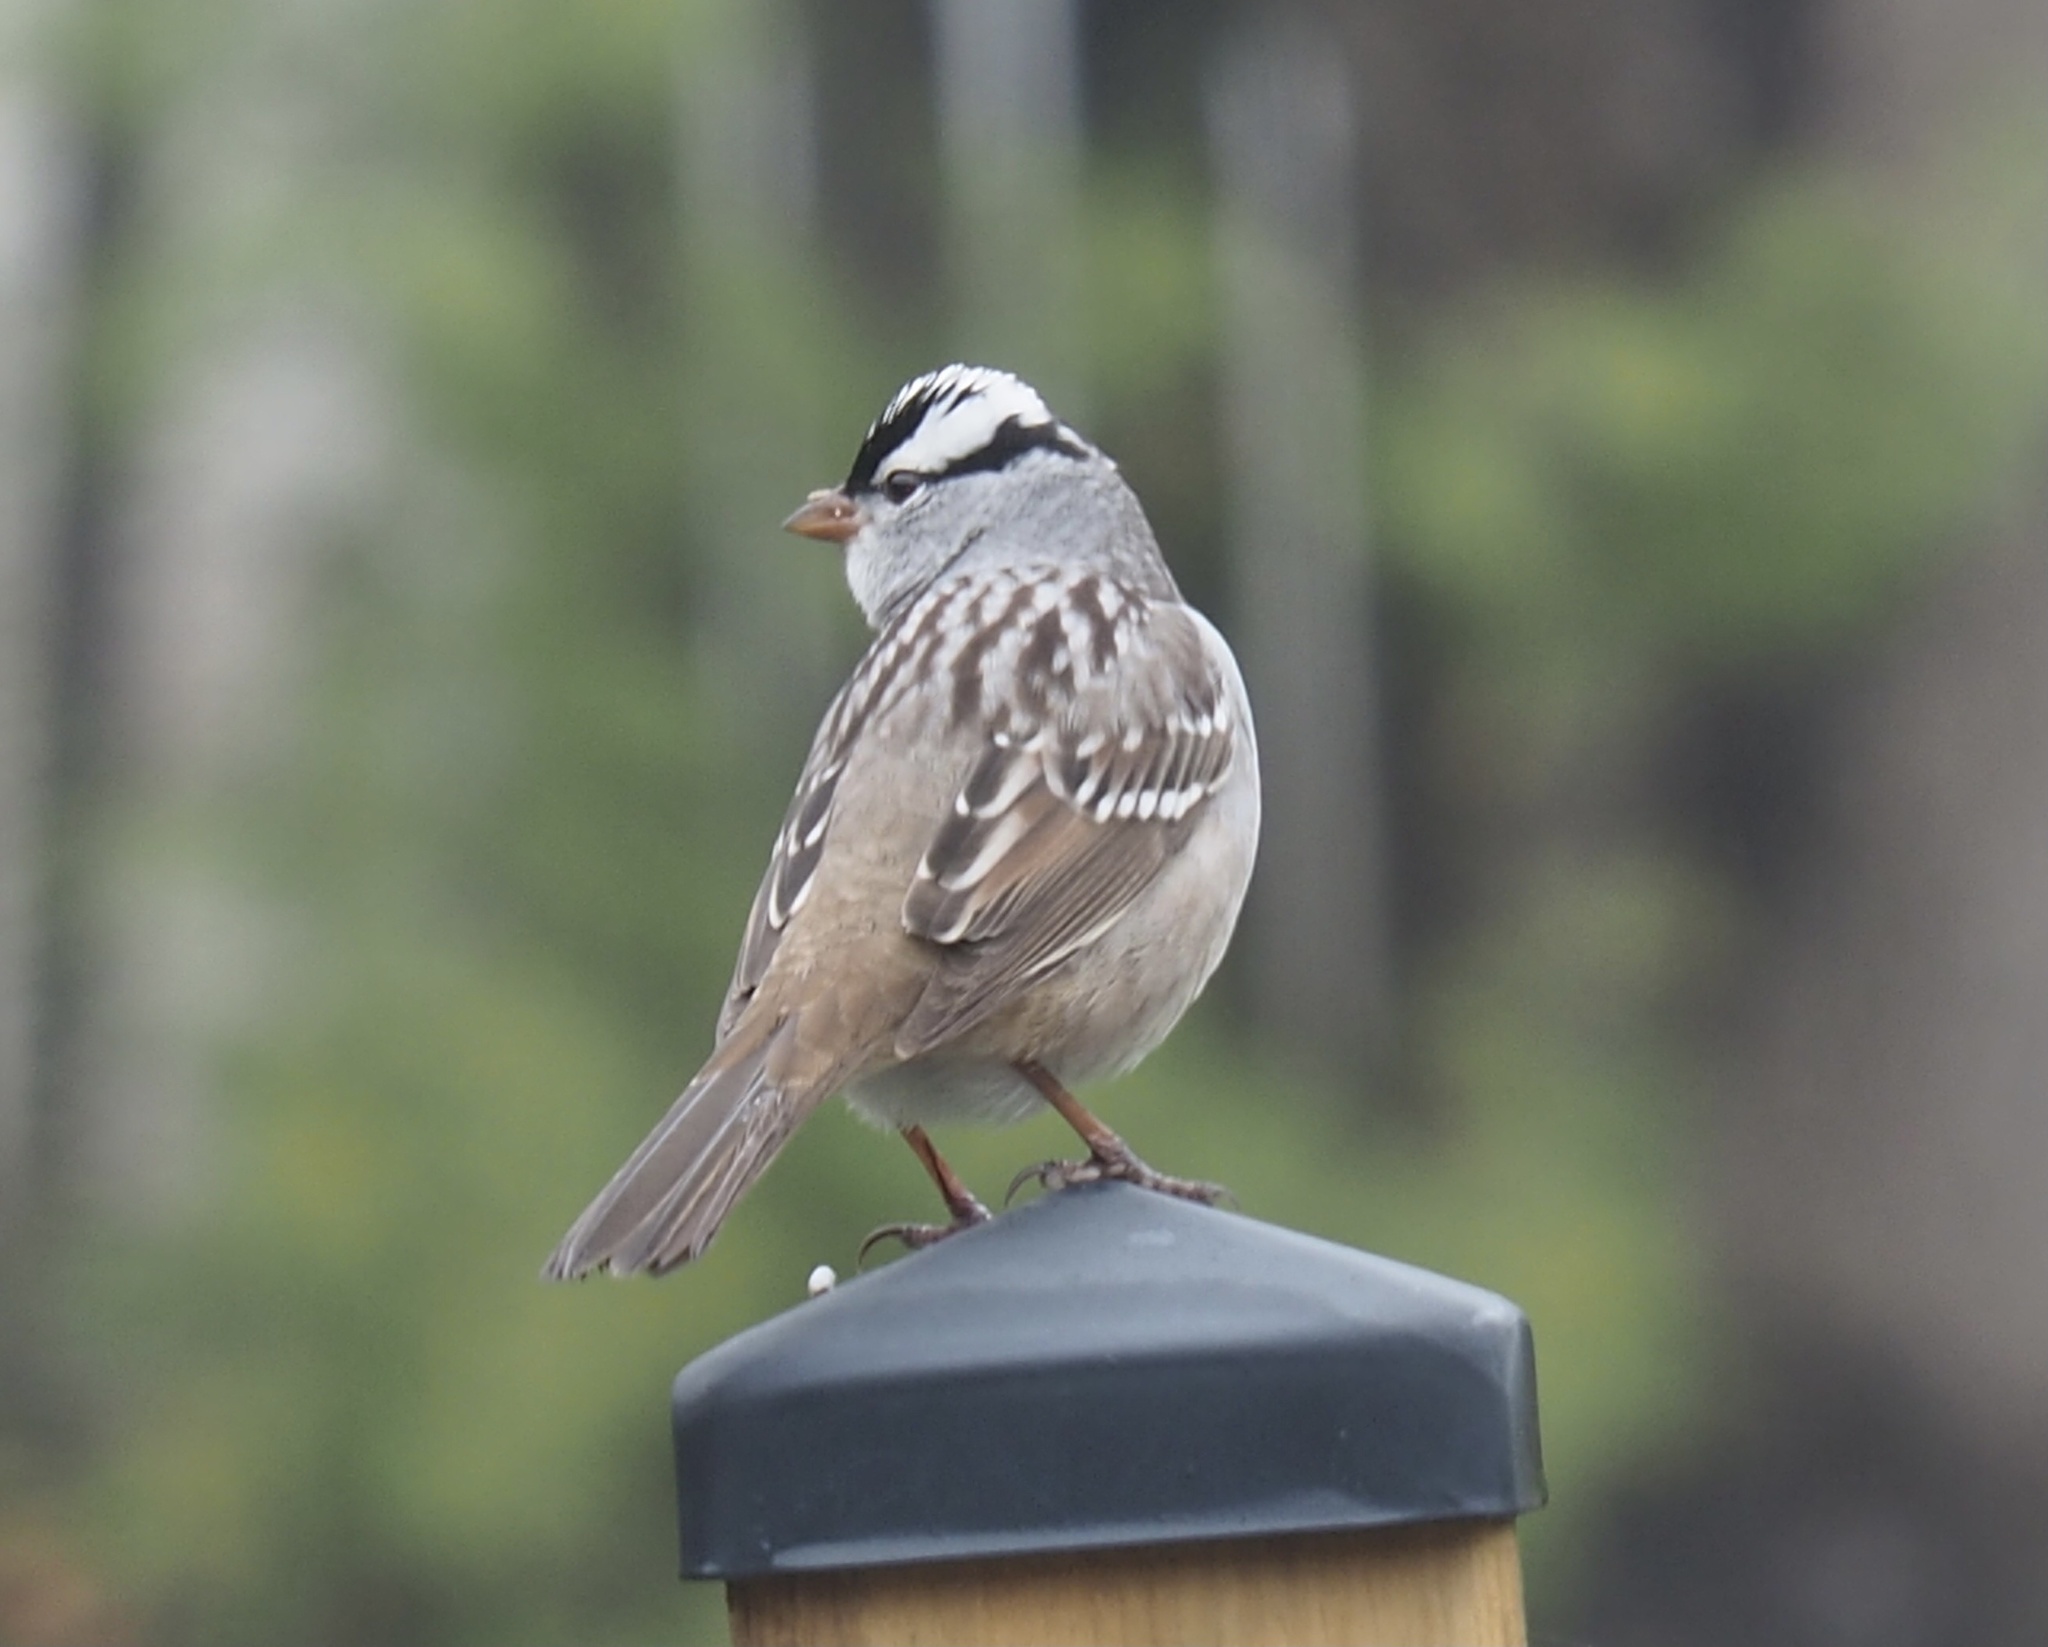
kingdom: Animalia
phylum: Chordata
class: Aves
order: Passeriformes
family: Passerellidae
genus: Zonotrichia
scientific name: Zonotrichia leucophrys
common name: White-crowned sparrow
